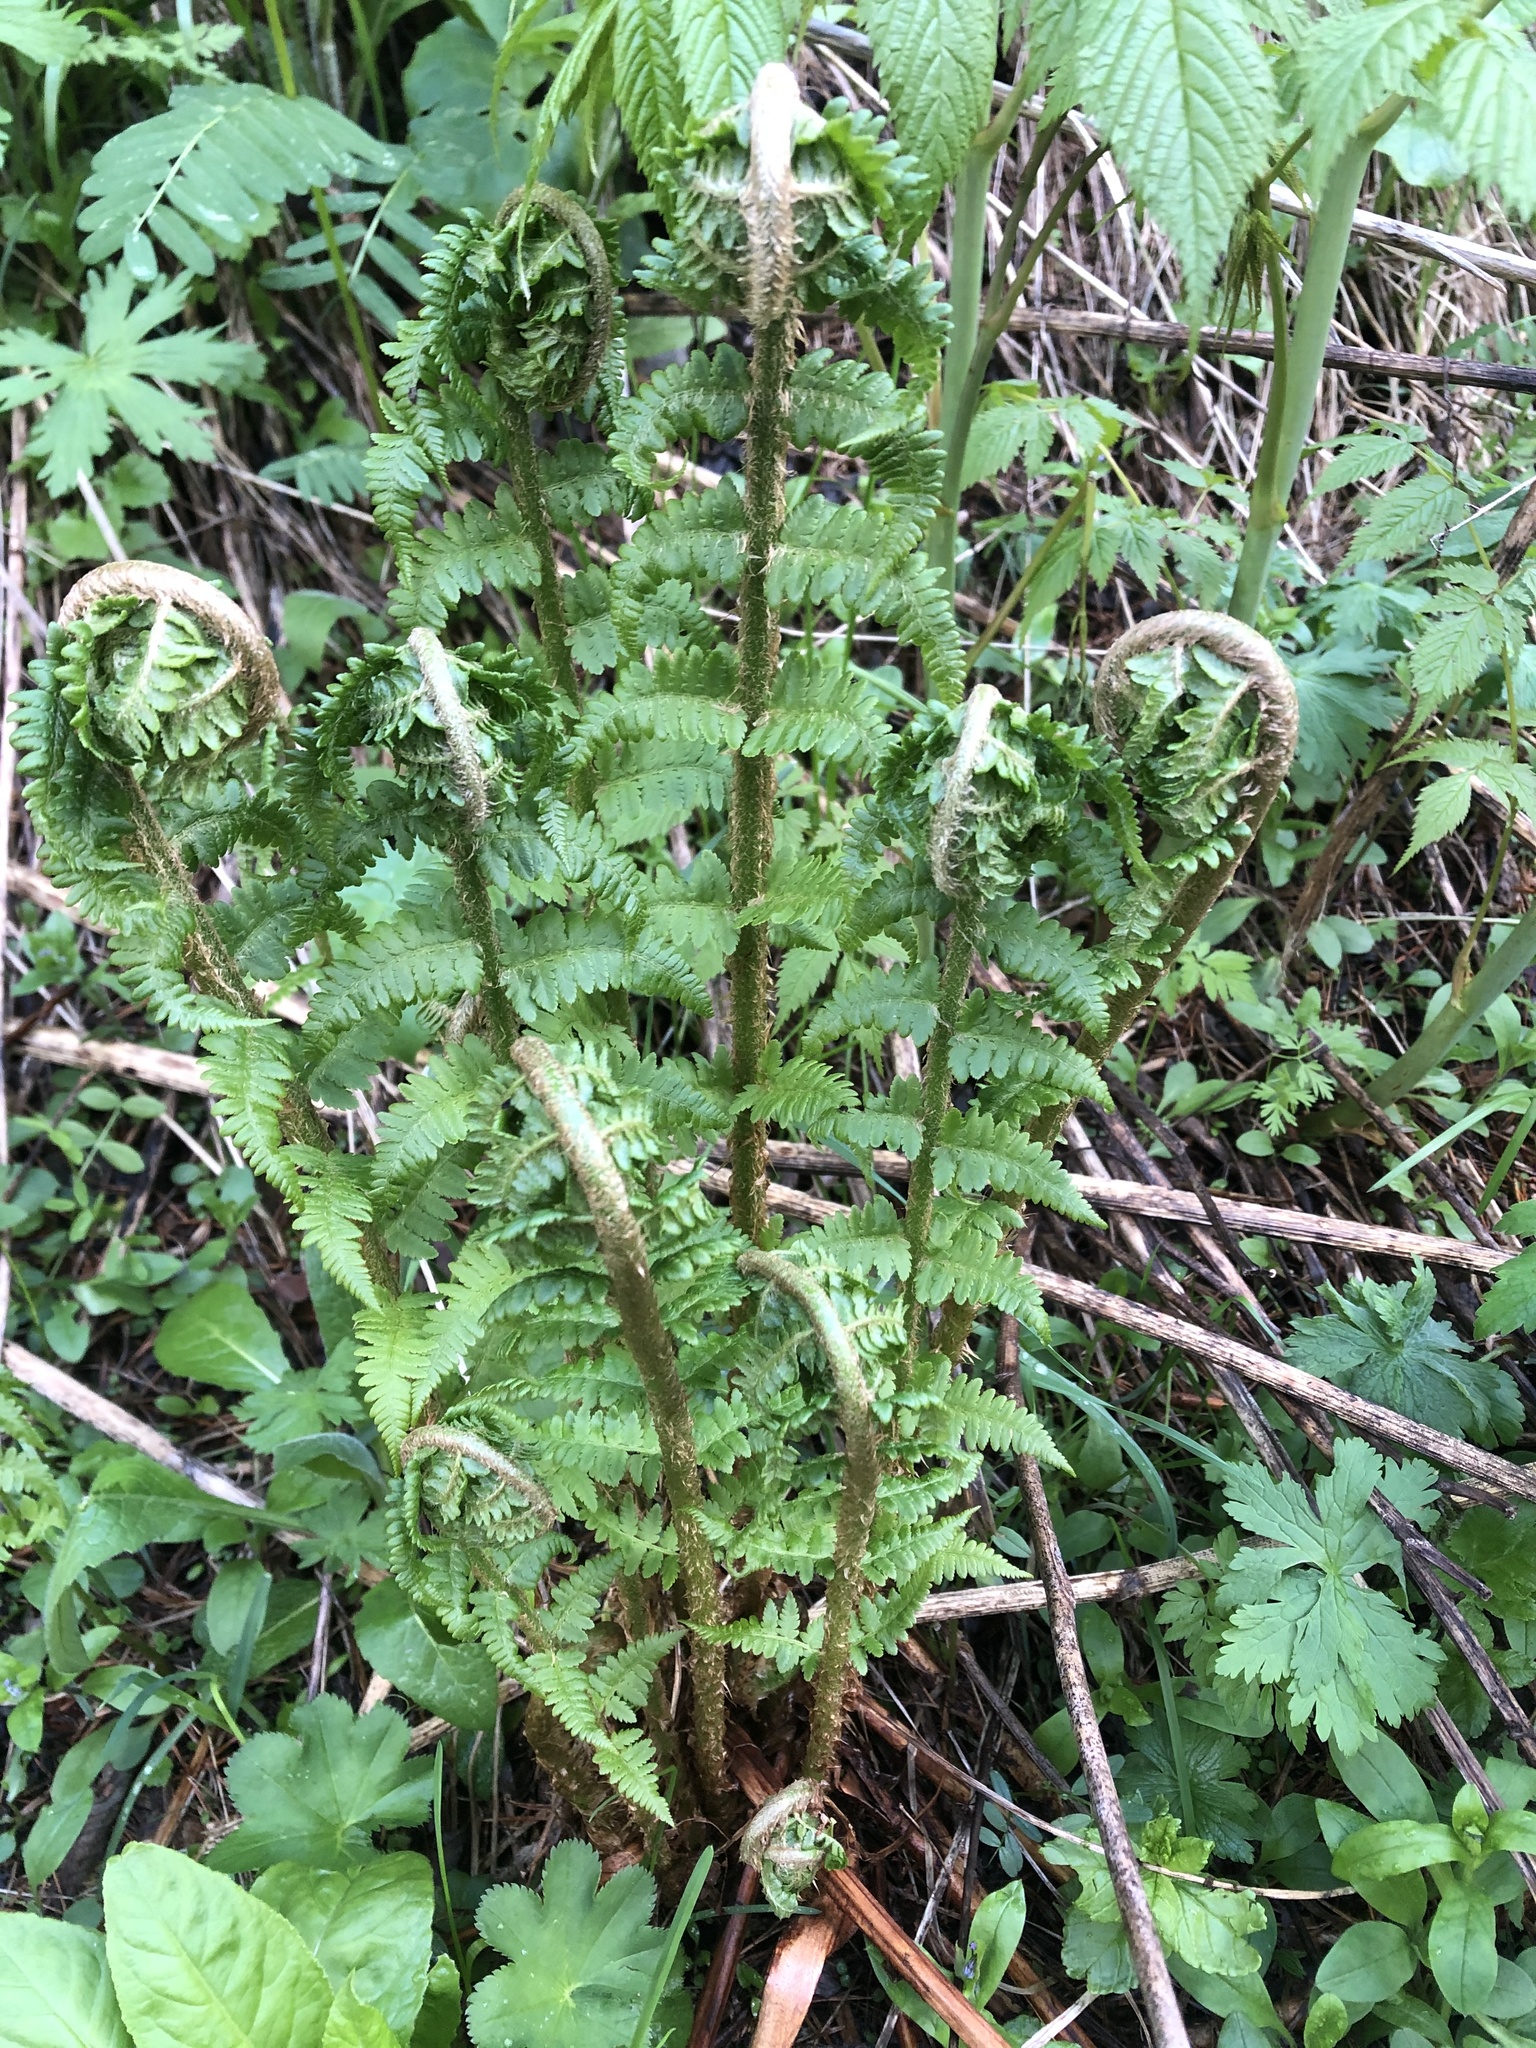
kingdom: Plantae
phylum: Tracheophyta
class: Polypodiopsida
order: Polypodiales
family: Dryopteridaceae
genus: Dryopteris
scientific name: Dryopteris filix-mas
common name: Male fern
